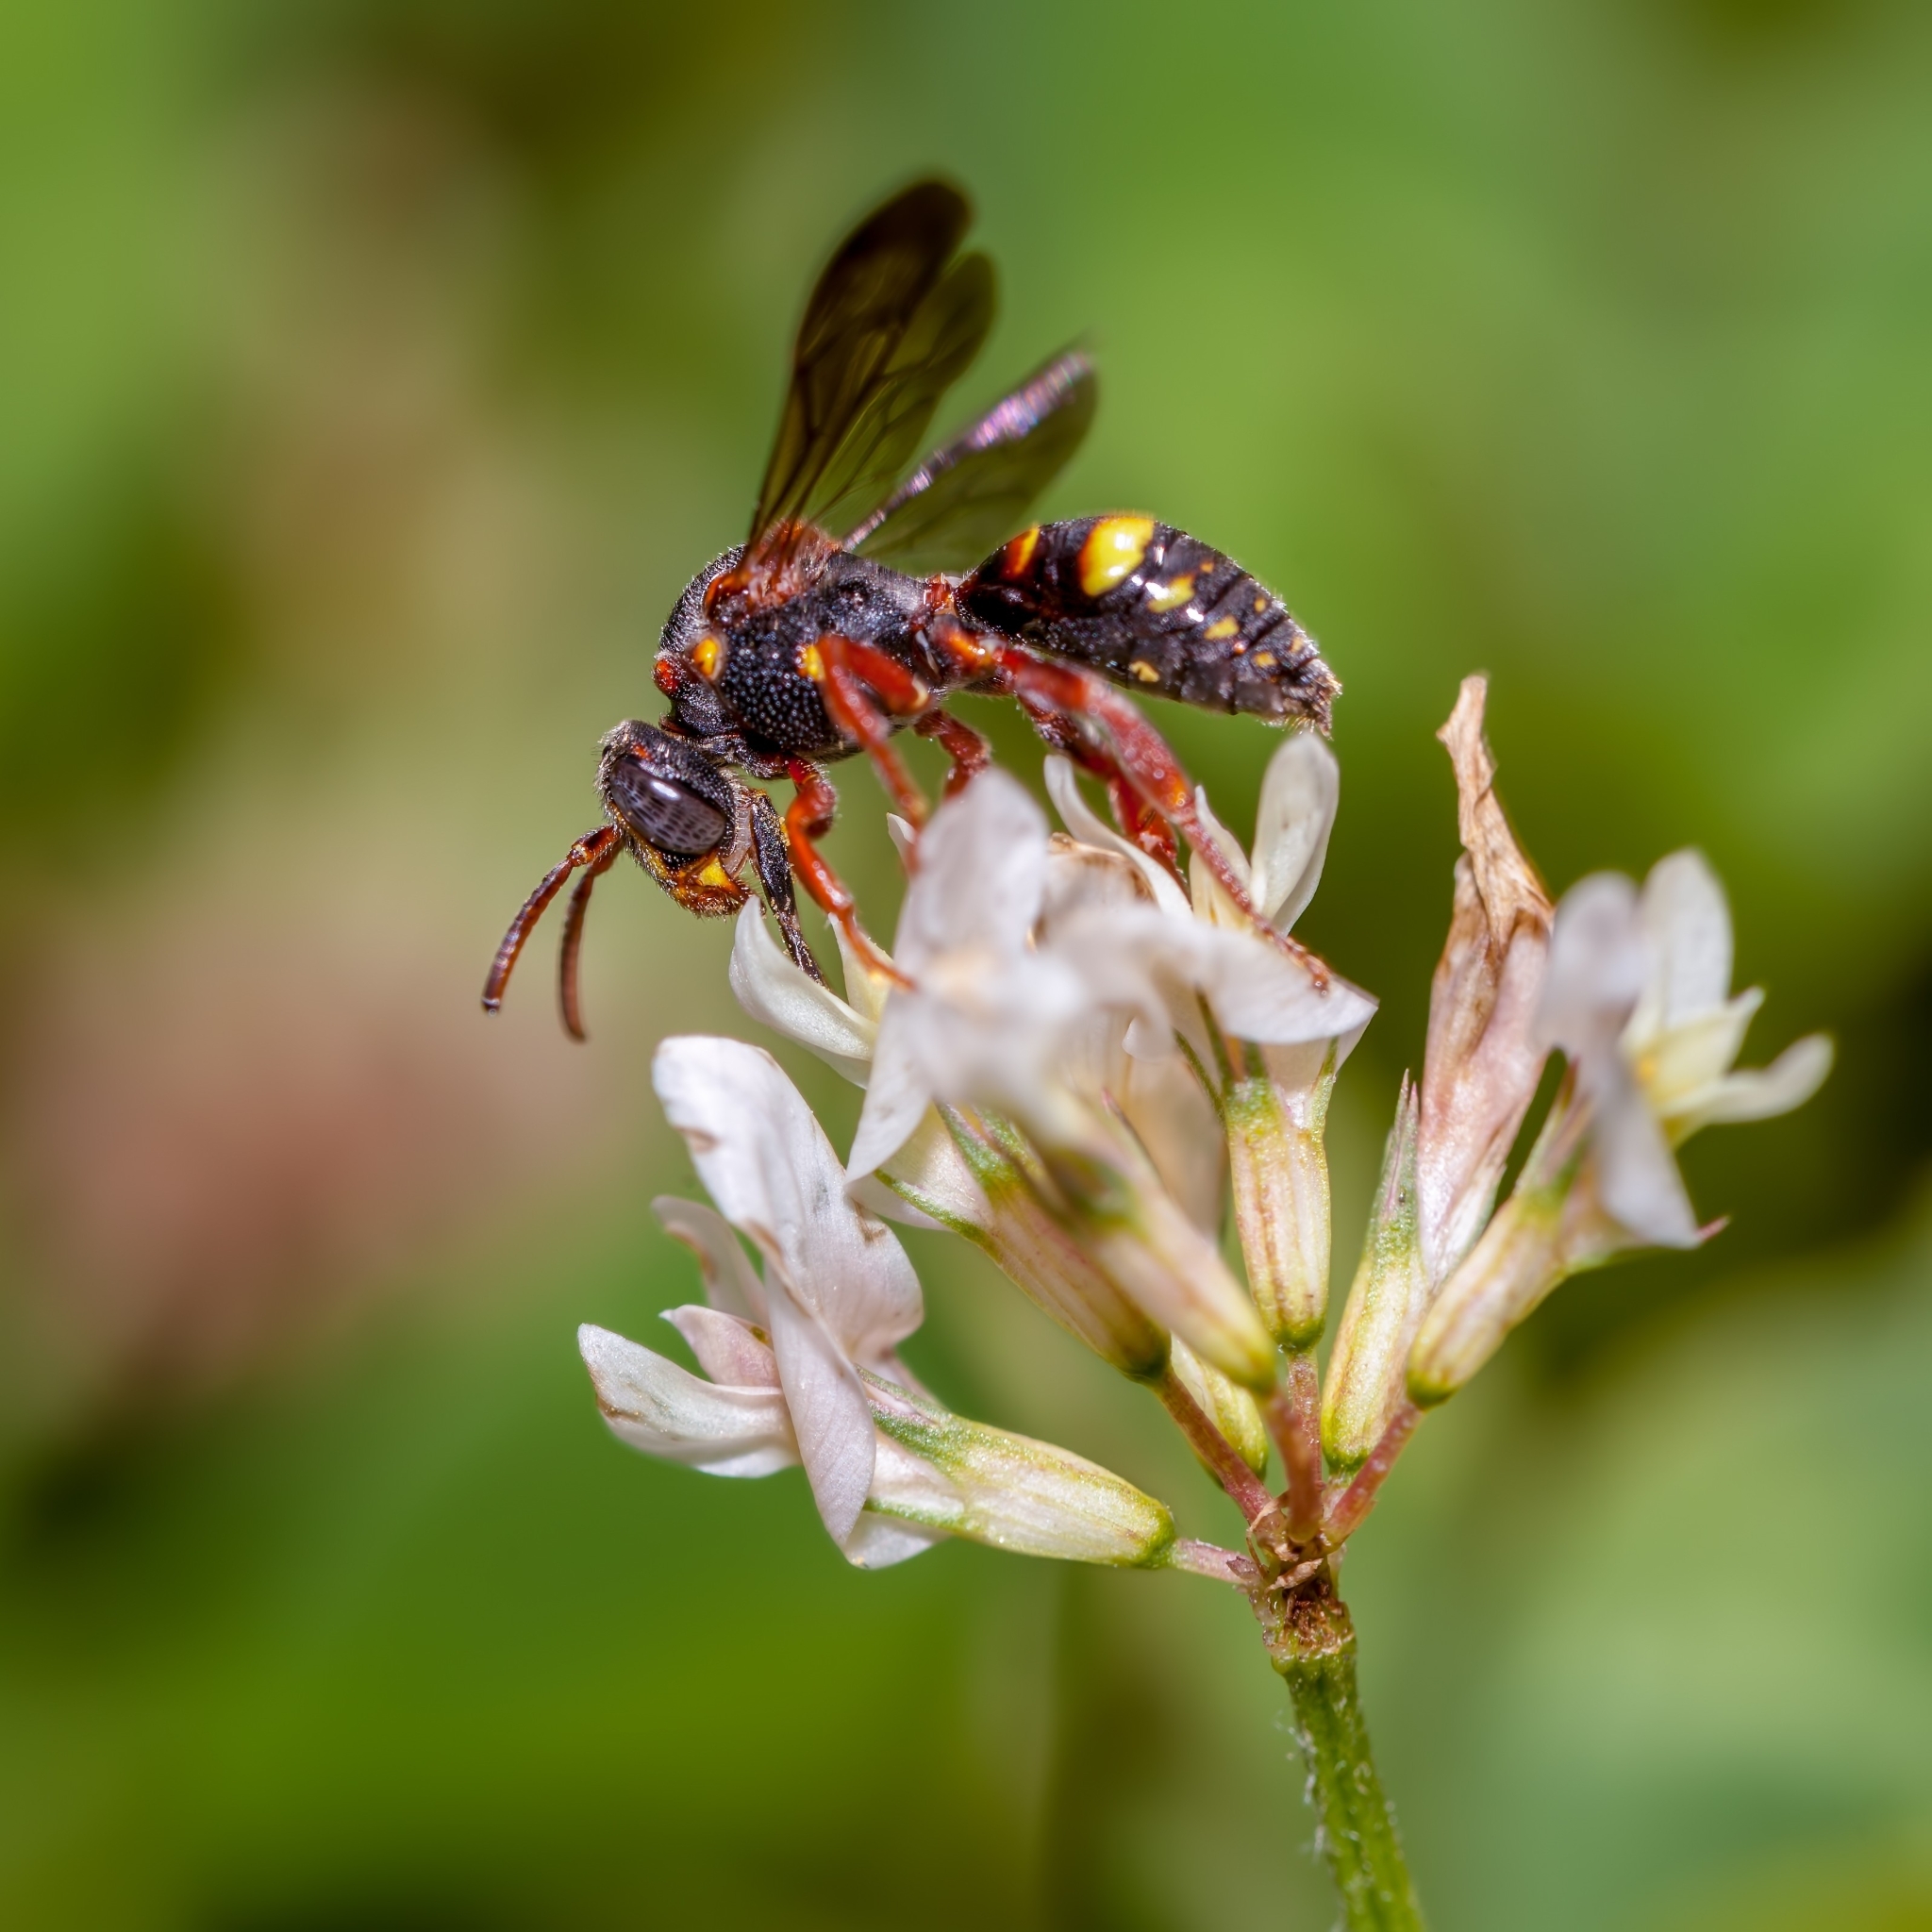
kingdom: Animalia
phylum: Arthropoda
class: Insecta
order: Hymenoptera
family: Apidae
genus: Nomada
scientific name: Nomada fervida
